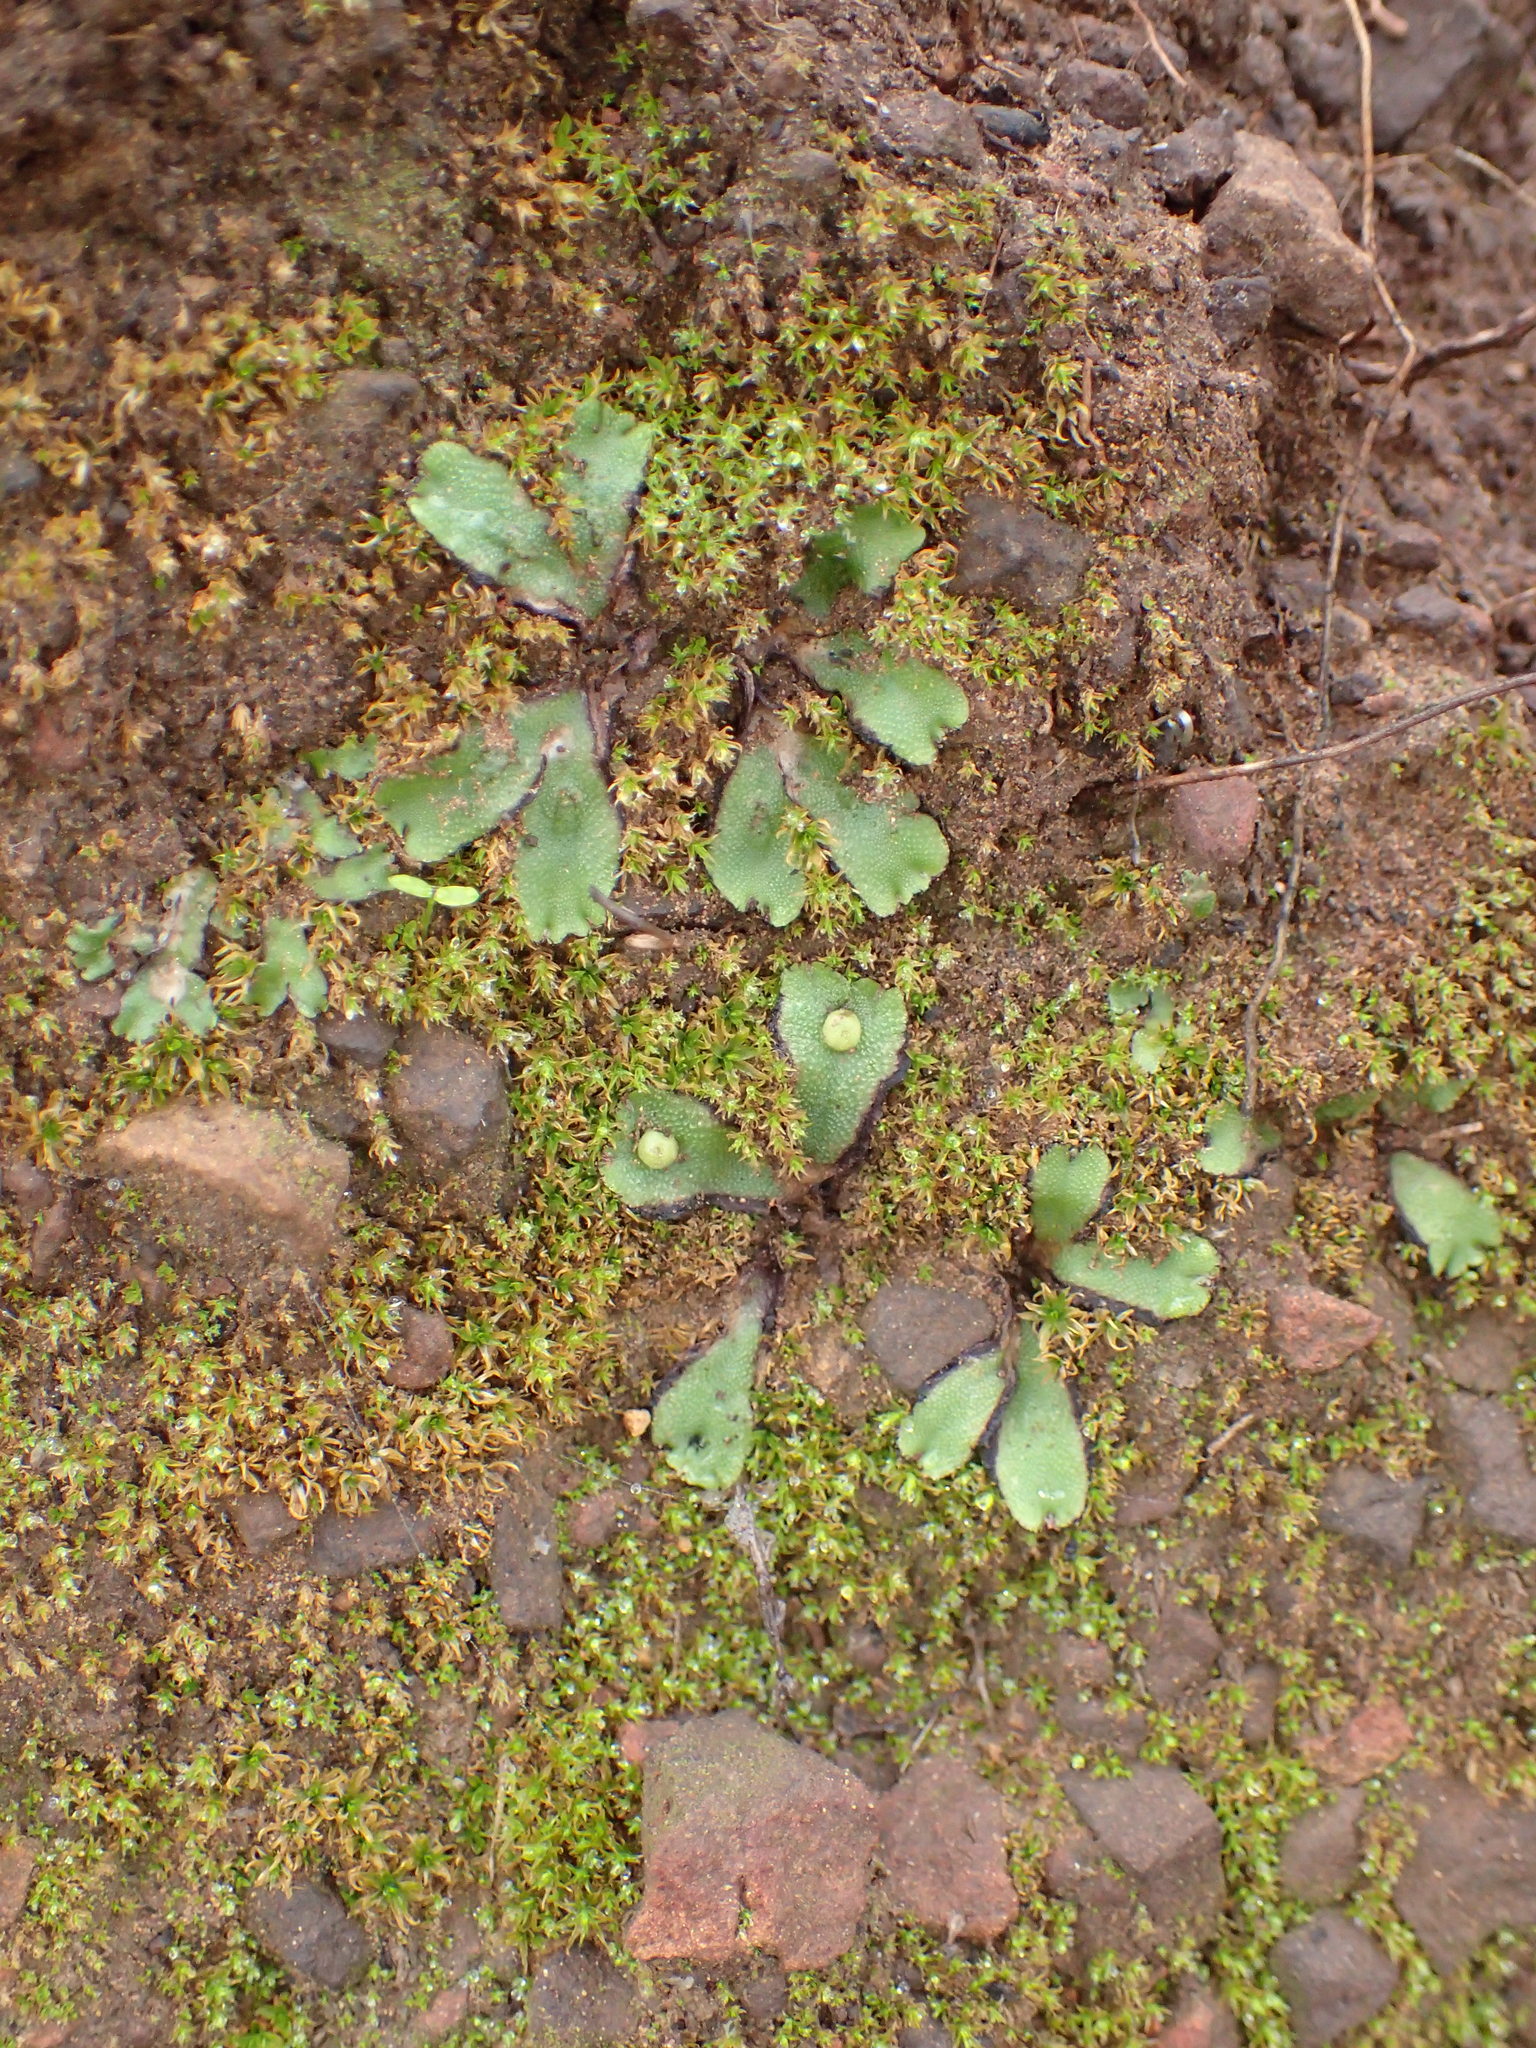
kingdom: Plantae
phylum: Marchantiophyta
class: Marchantiopsida
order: Marchantiales
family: Aytoniaceae
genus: Asterella
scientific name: Asterella californica
